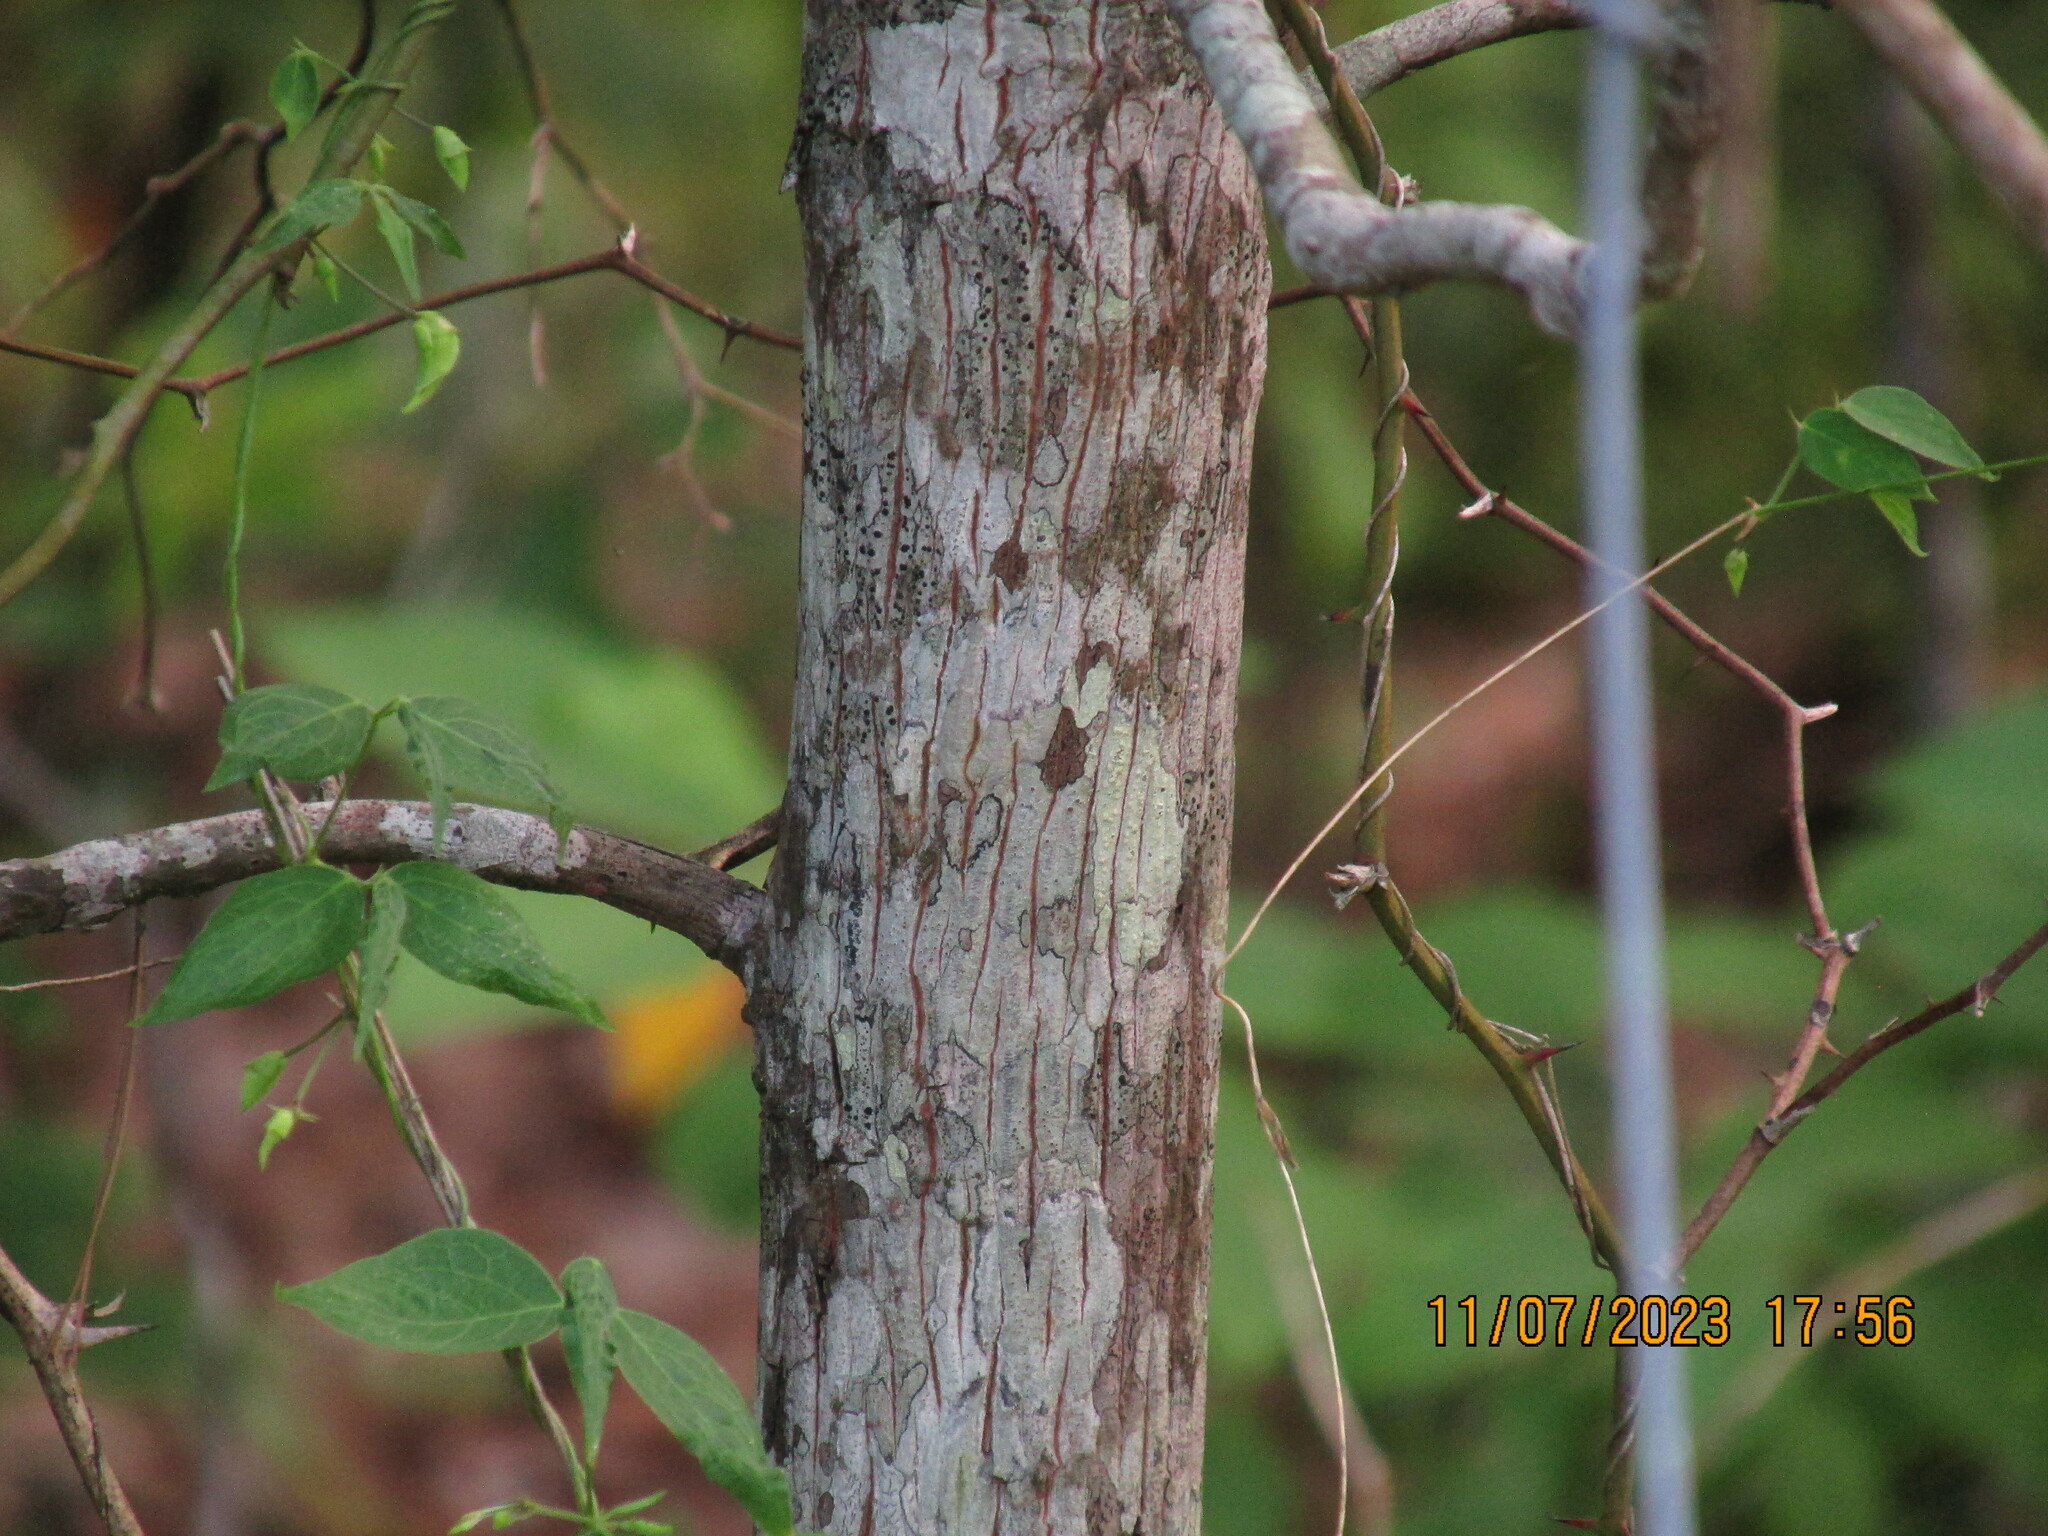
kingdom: Plantae
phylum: Tracheophyta
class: Magnoliopsida
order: Fagales
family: Juglandaceae
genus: Carya
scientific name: Carya alba
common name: Mockernut hickory
